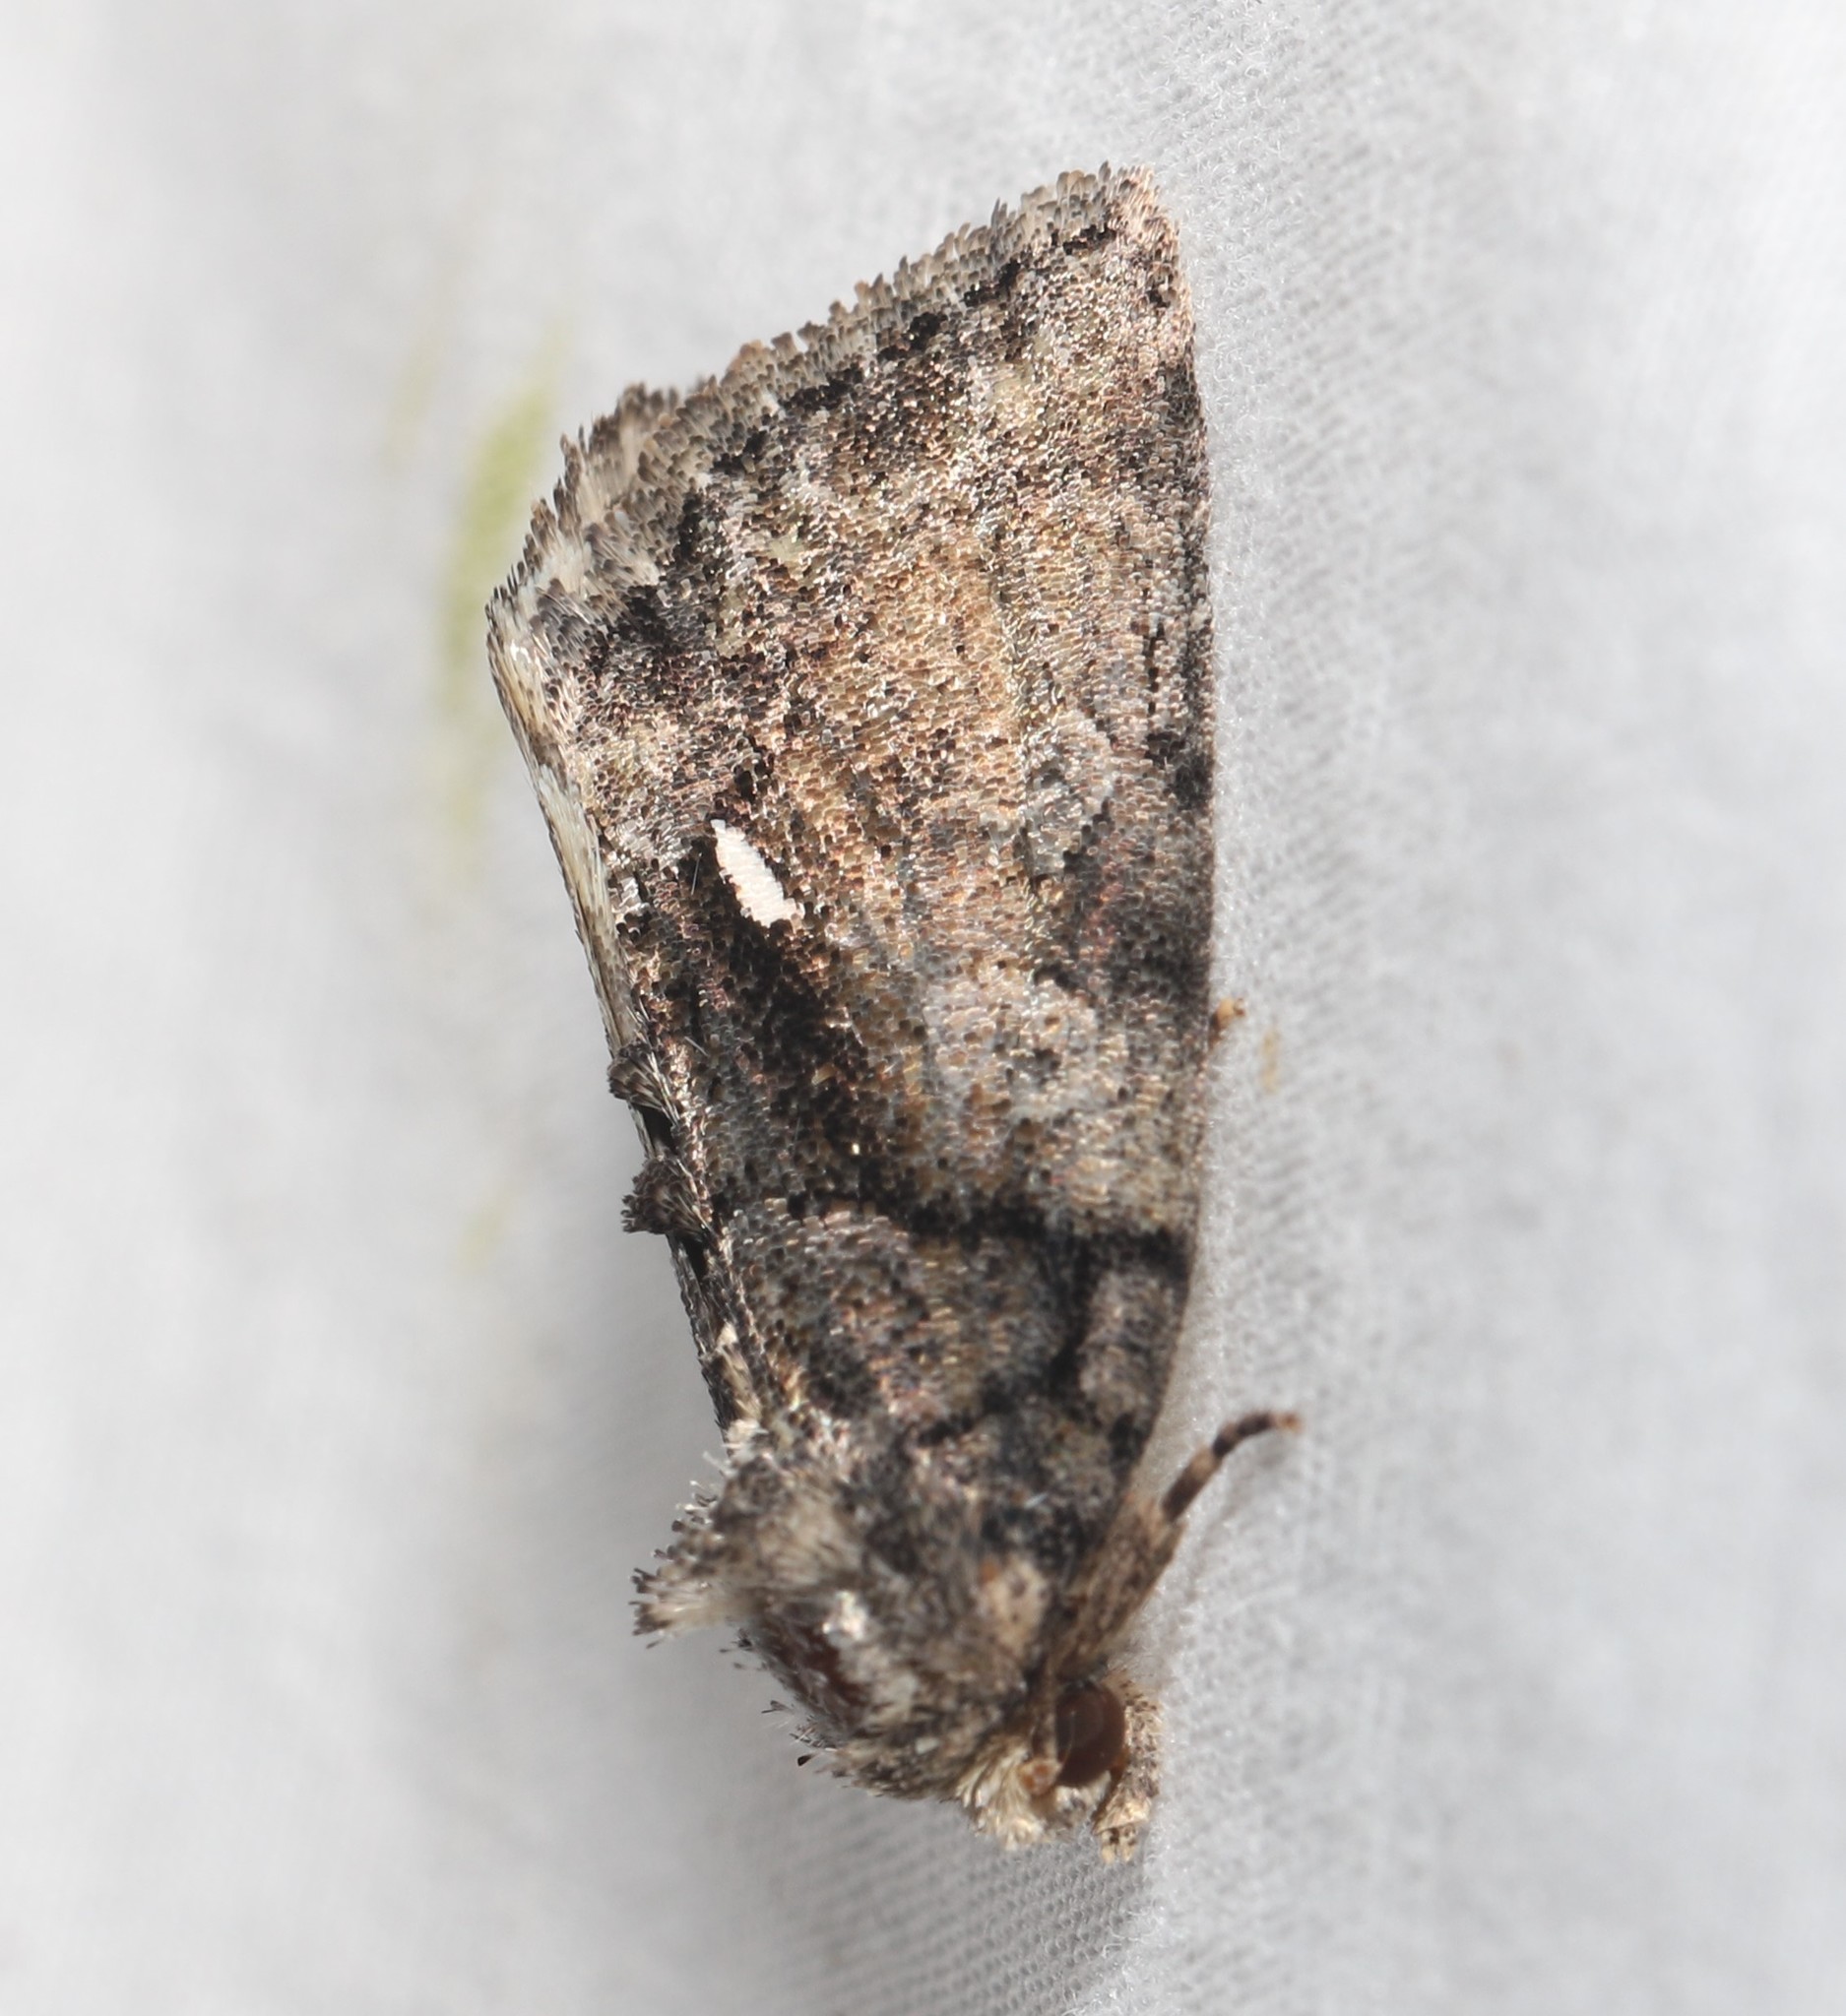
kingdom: Animalia
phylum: Arthropoda
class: Insecta
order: Lepidoptera
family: Noctuidae
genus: Chytonix
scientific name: Chytonix palliatricula
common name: Cloaked marvel
